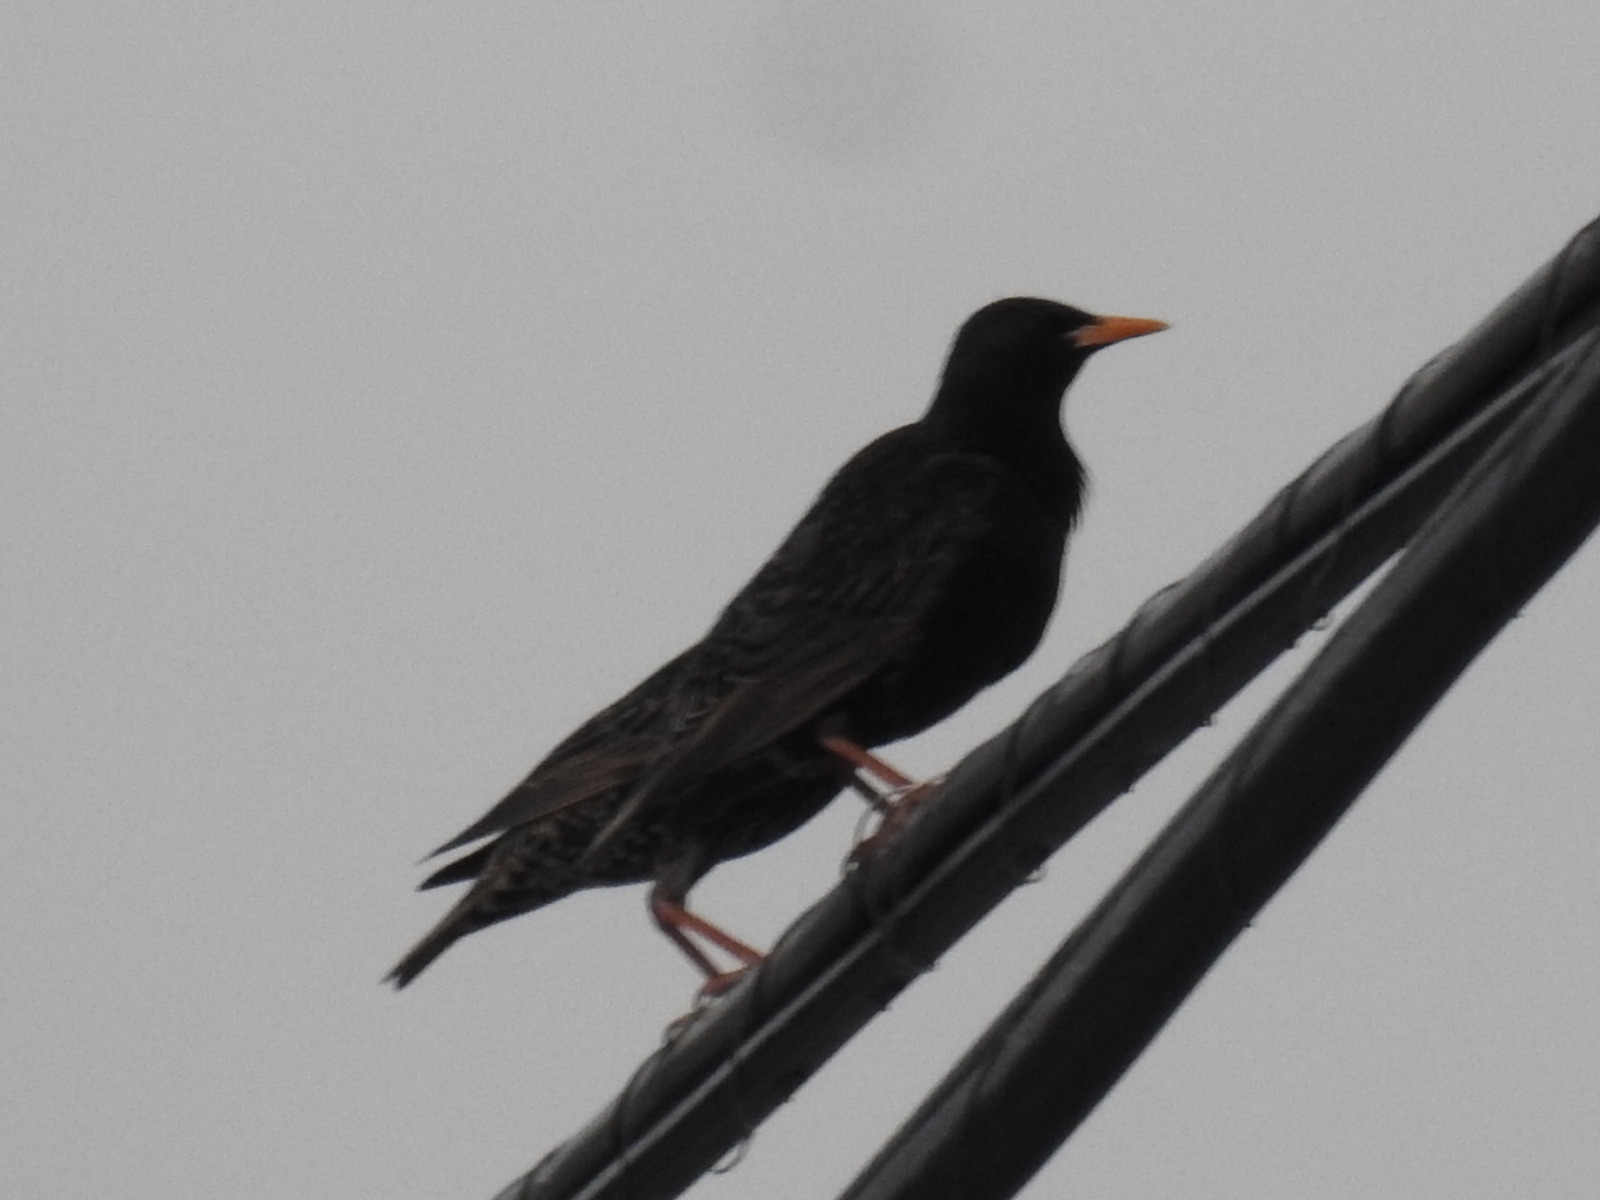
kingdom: Animalia
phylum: Chordata
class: Aves
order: Passeriformes
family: Sturnidae
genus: Sturnus
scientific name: Sturnus vulgaris
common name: Common starling
